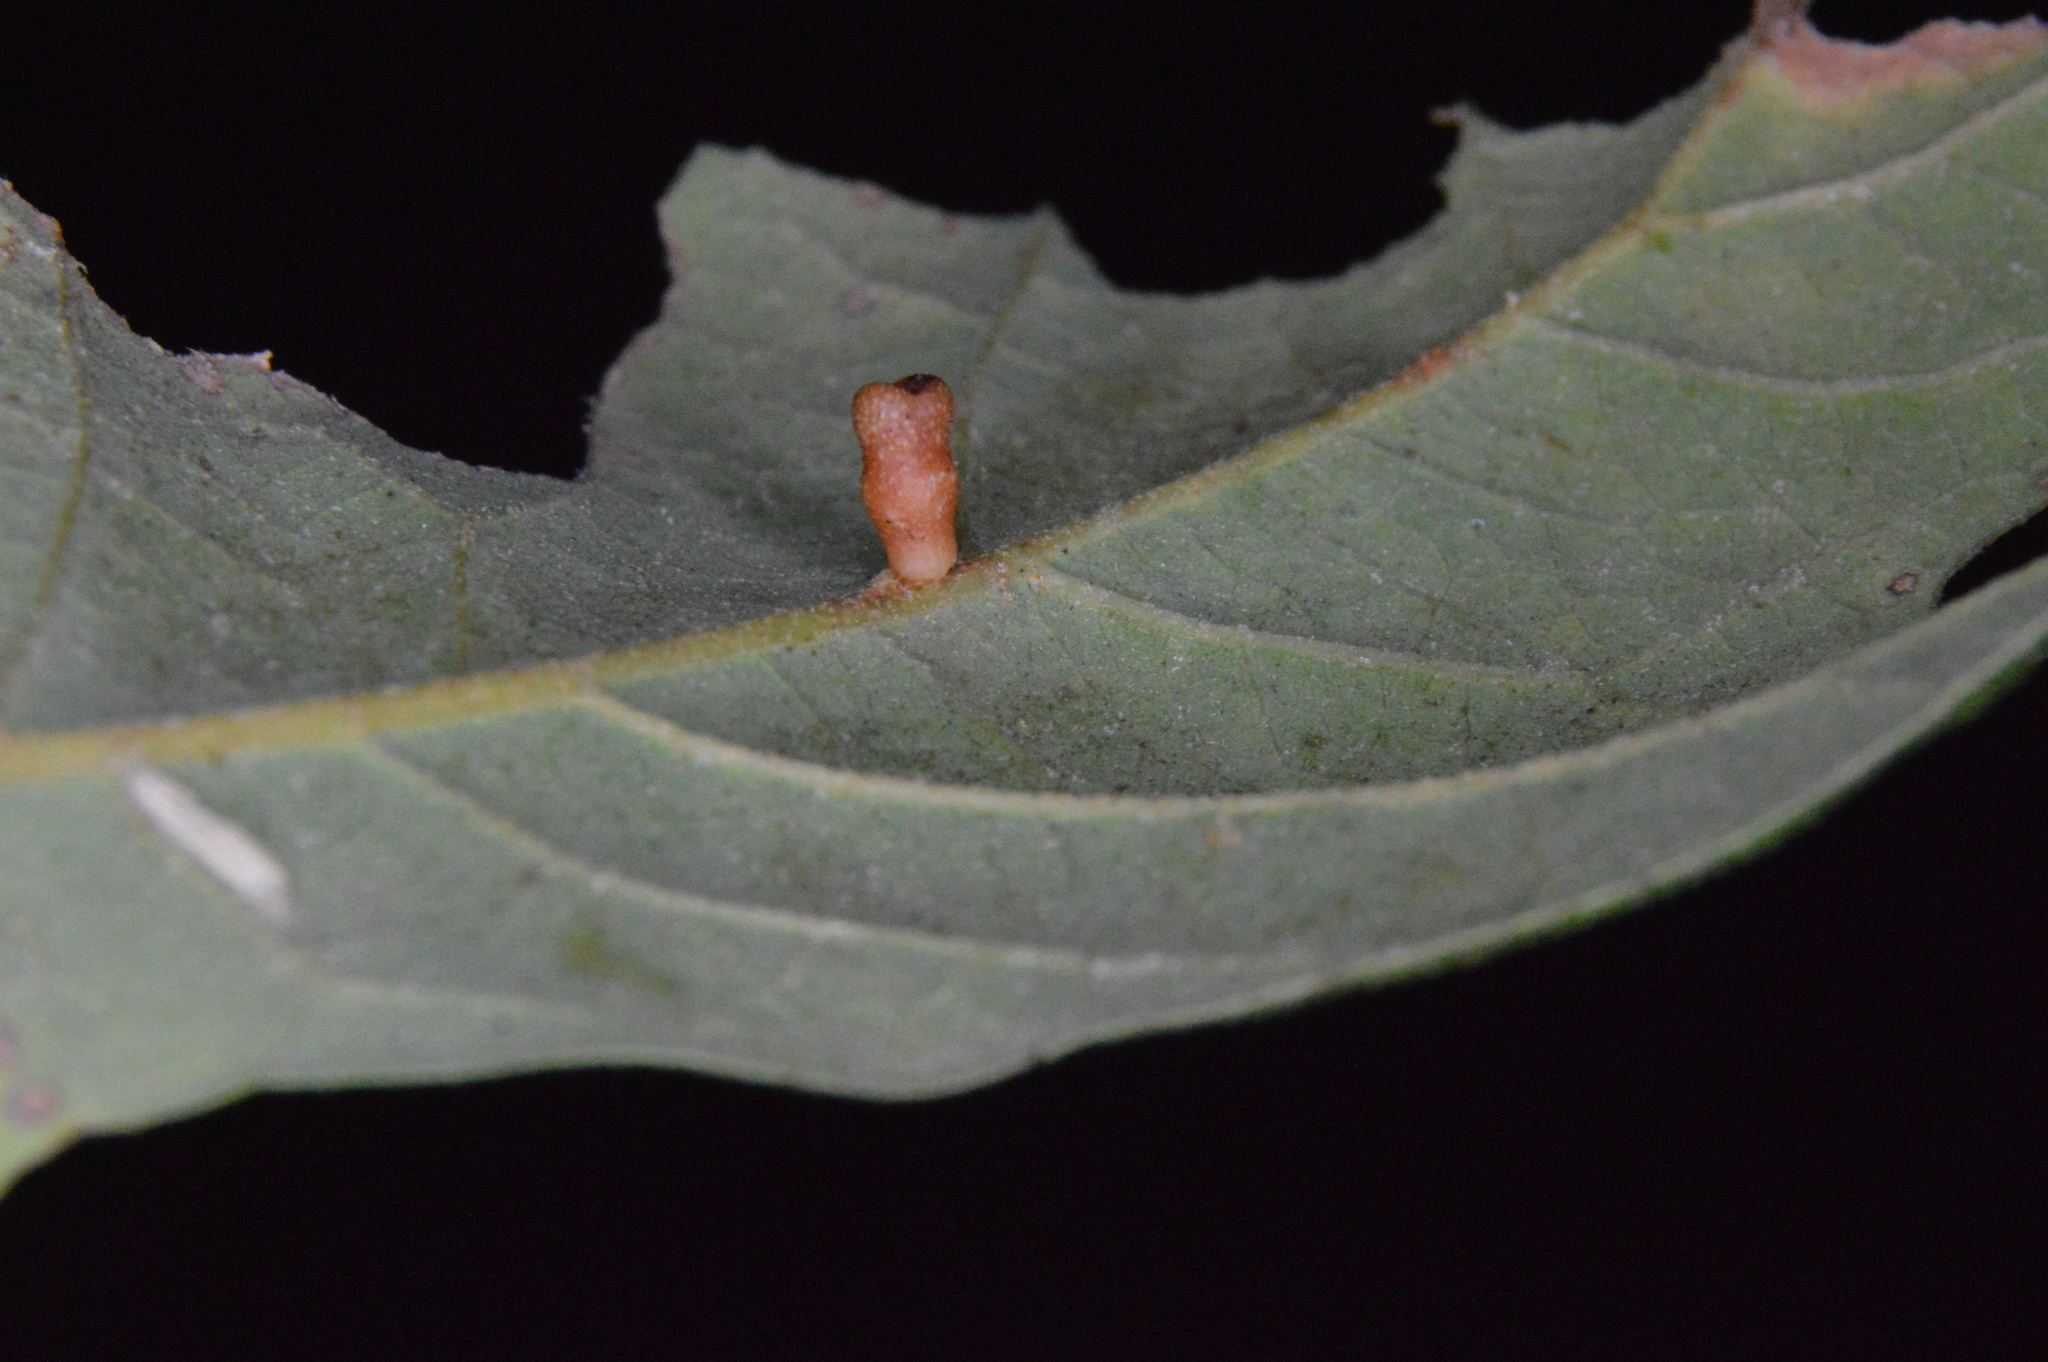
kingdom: Animalia
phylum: Arthropoda
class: Insecta
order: Hymenoptera
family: Cynipidae
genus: Andricus
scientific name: Andricus lustrans
